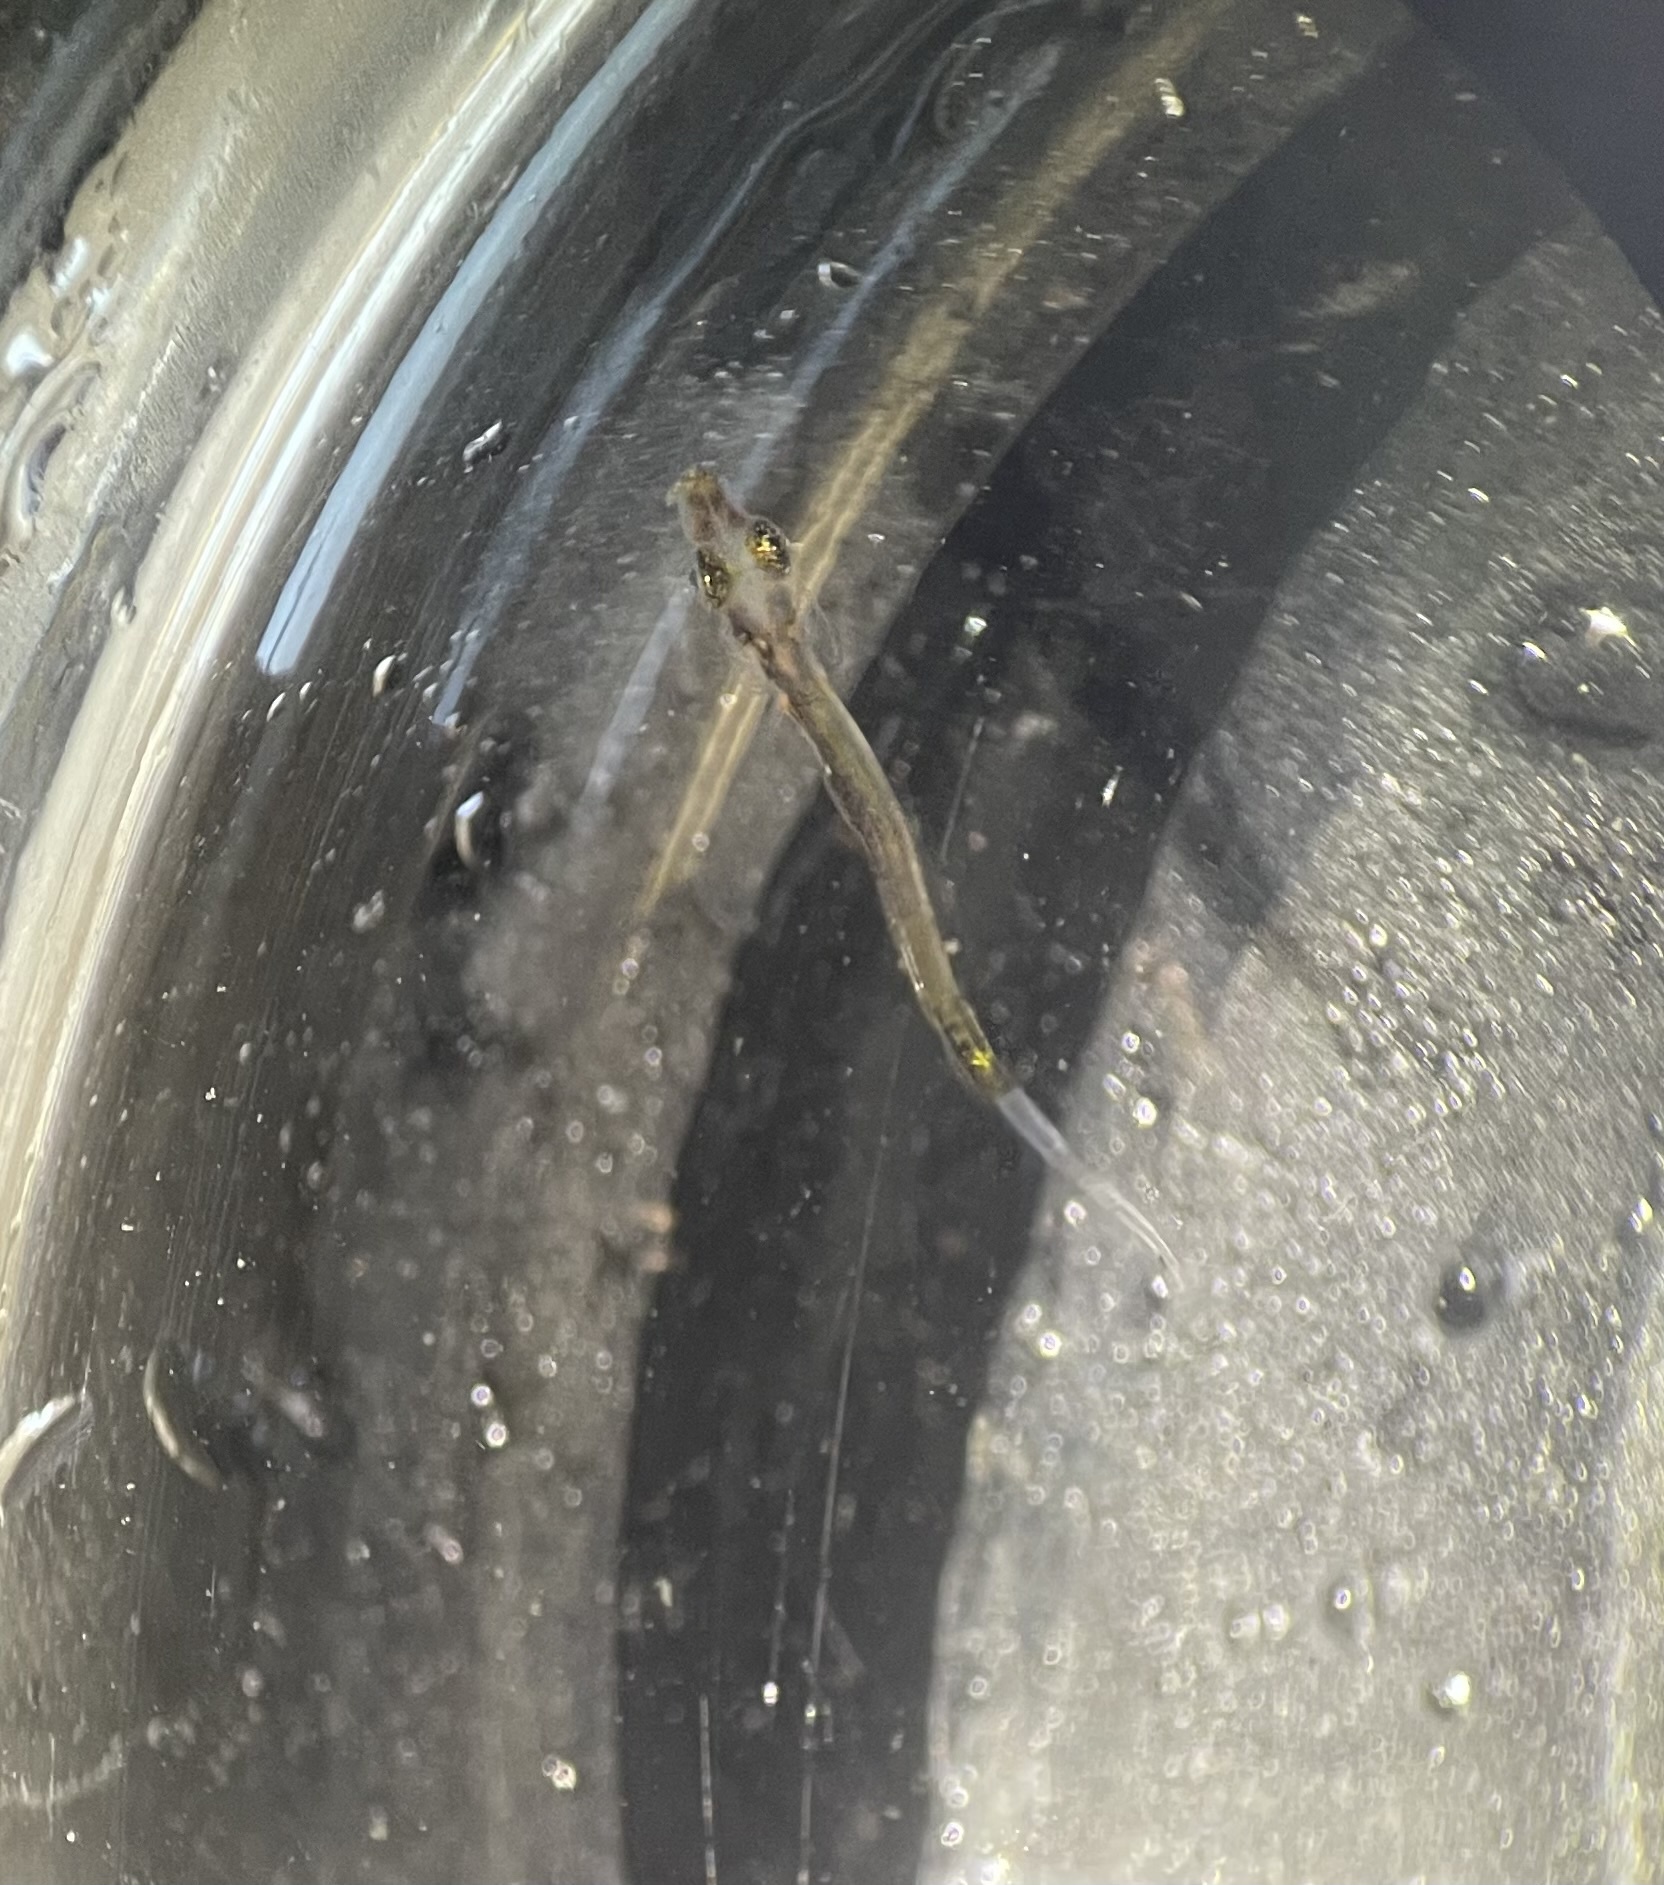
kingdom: Animalia
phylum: Chordata
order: Syngnathiformes
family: Syngnathidae
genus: Syngnathus
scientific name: Syngnathus californiensis
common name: Great pipefish
